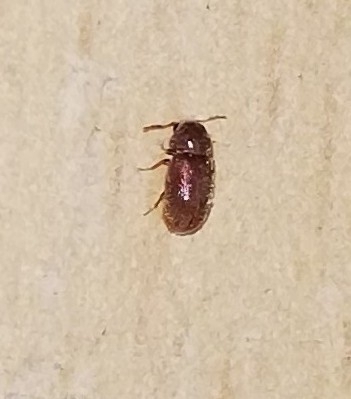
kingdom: Animalia
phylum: Arthropoda
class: Insecta
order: Coleoptera
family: Anobiidae
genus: Stegobium
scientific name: Stegobium paniceum
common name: Drugstore beetle
